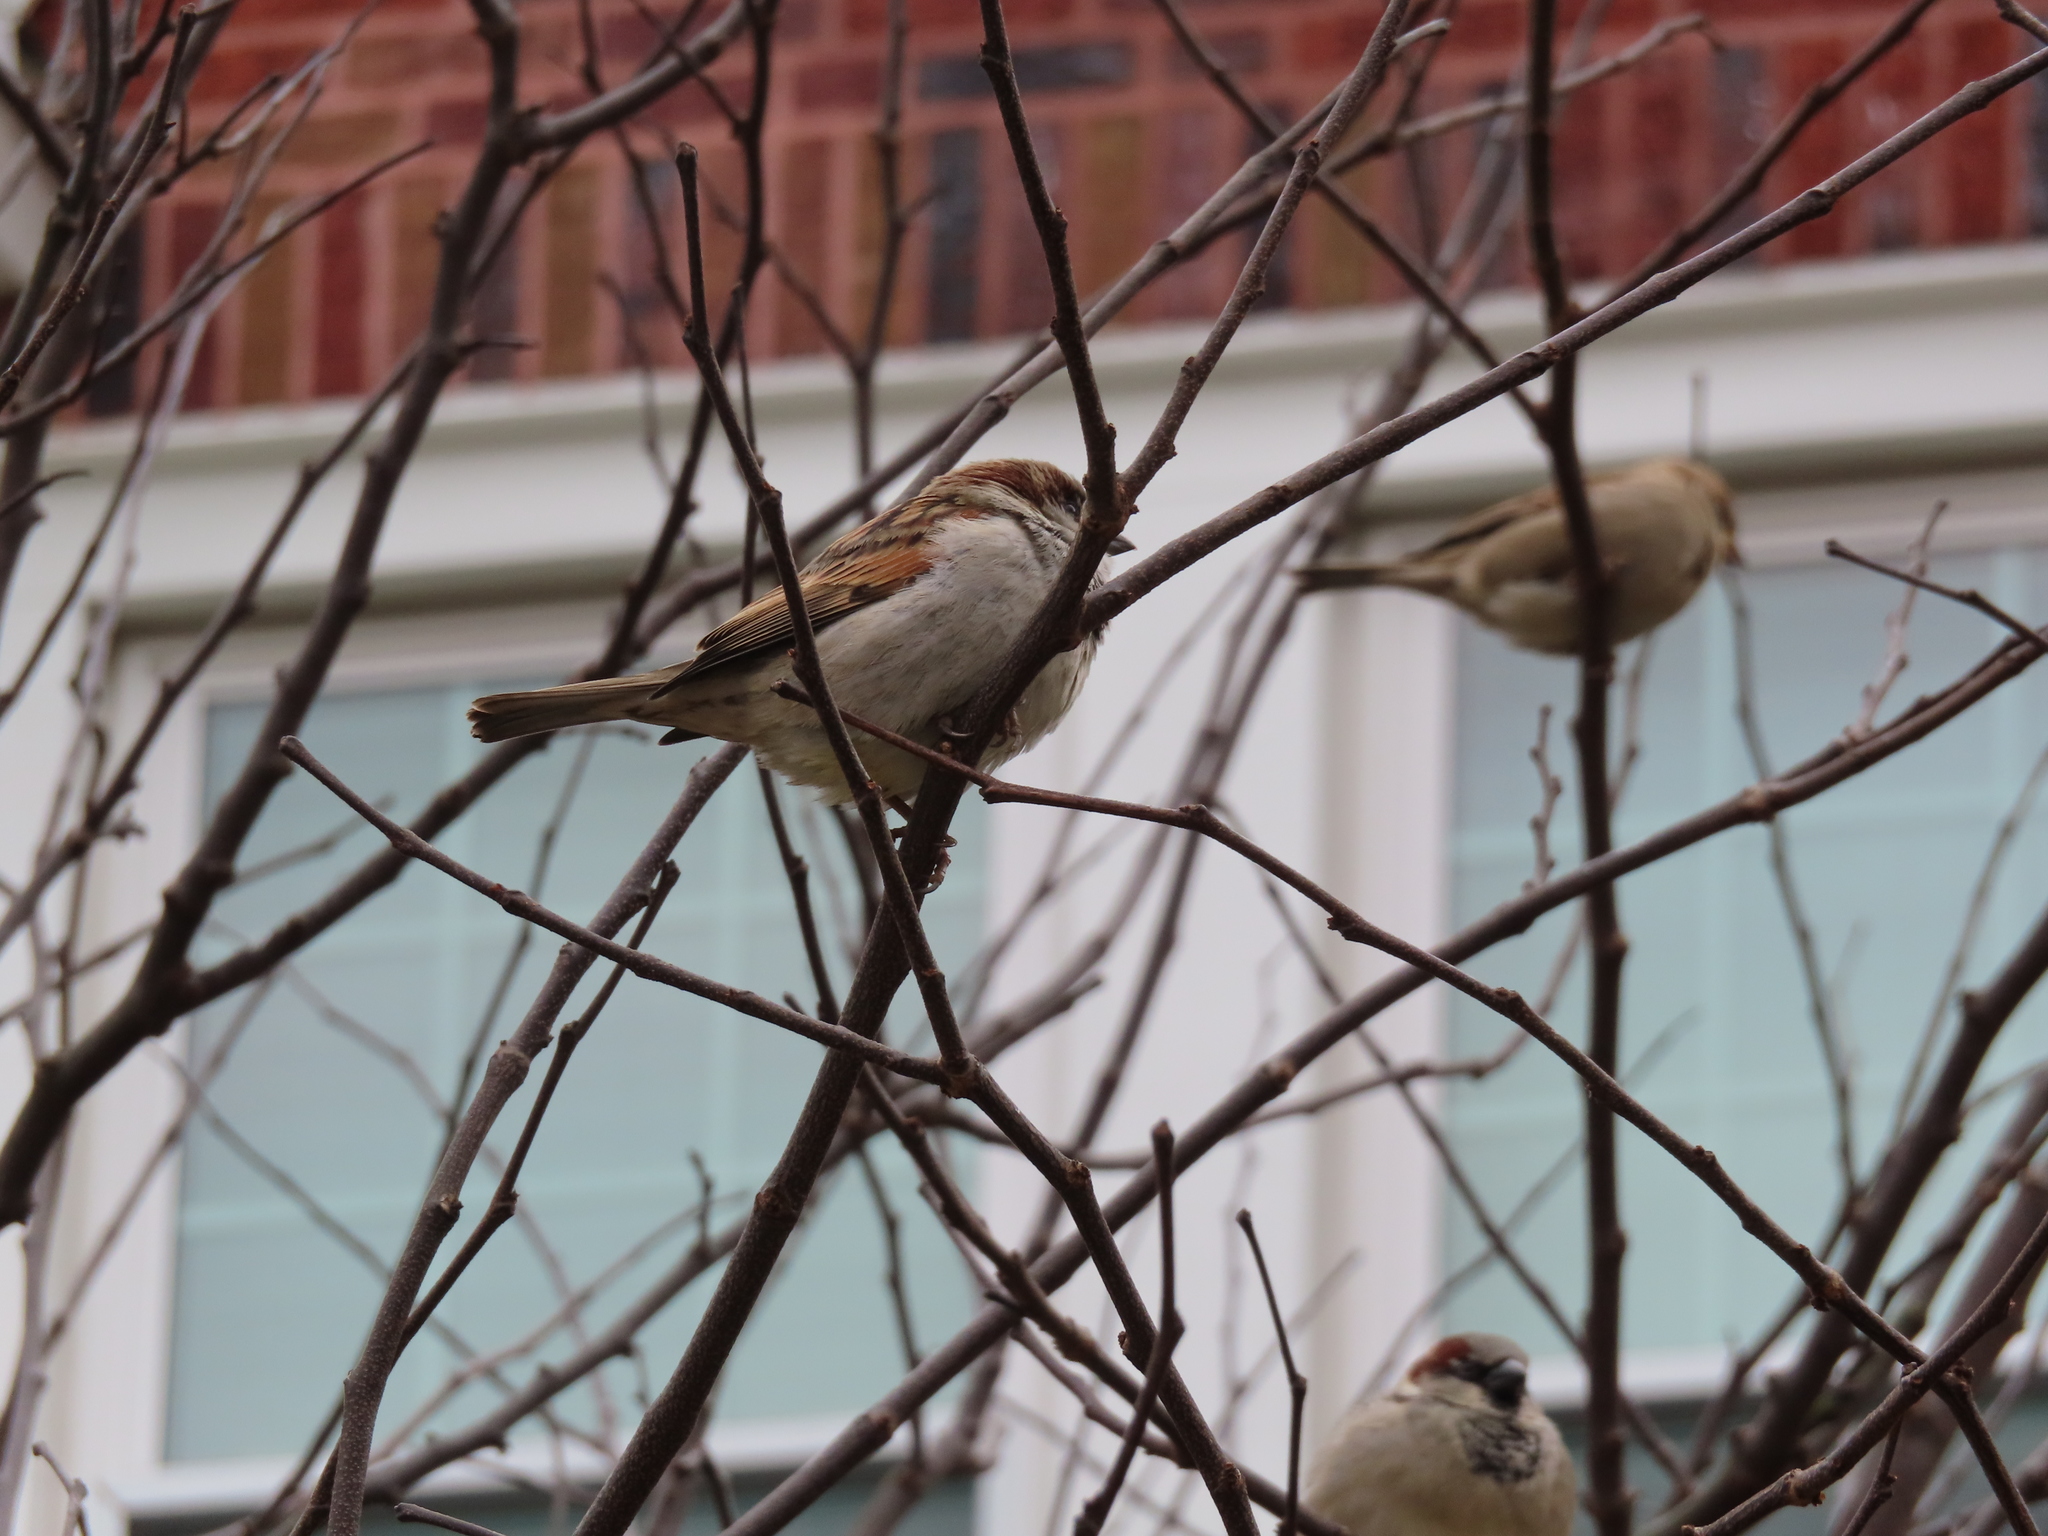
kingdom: Animalia
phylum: Chordata
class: Aves
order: Passeriformes
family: Passeridae
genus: Passer
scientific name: Passer domesticus
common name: House sparrow
